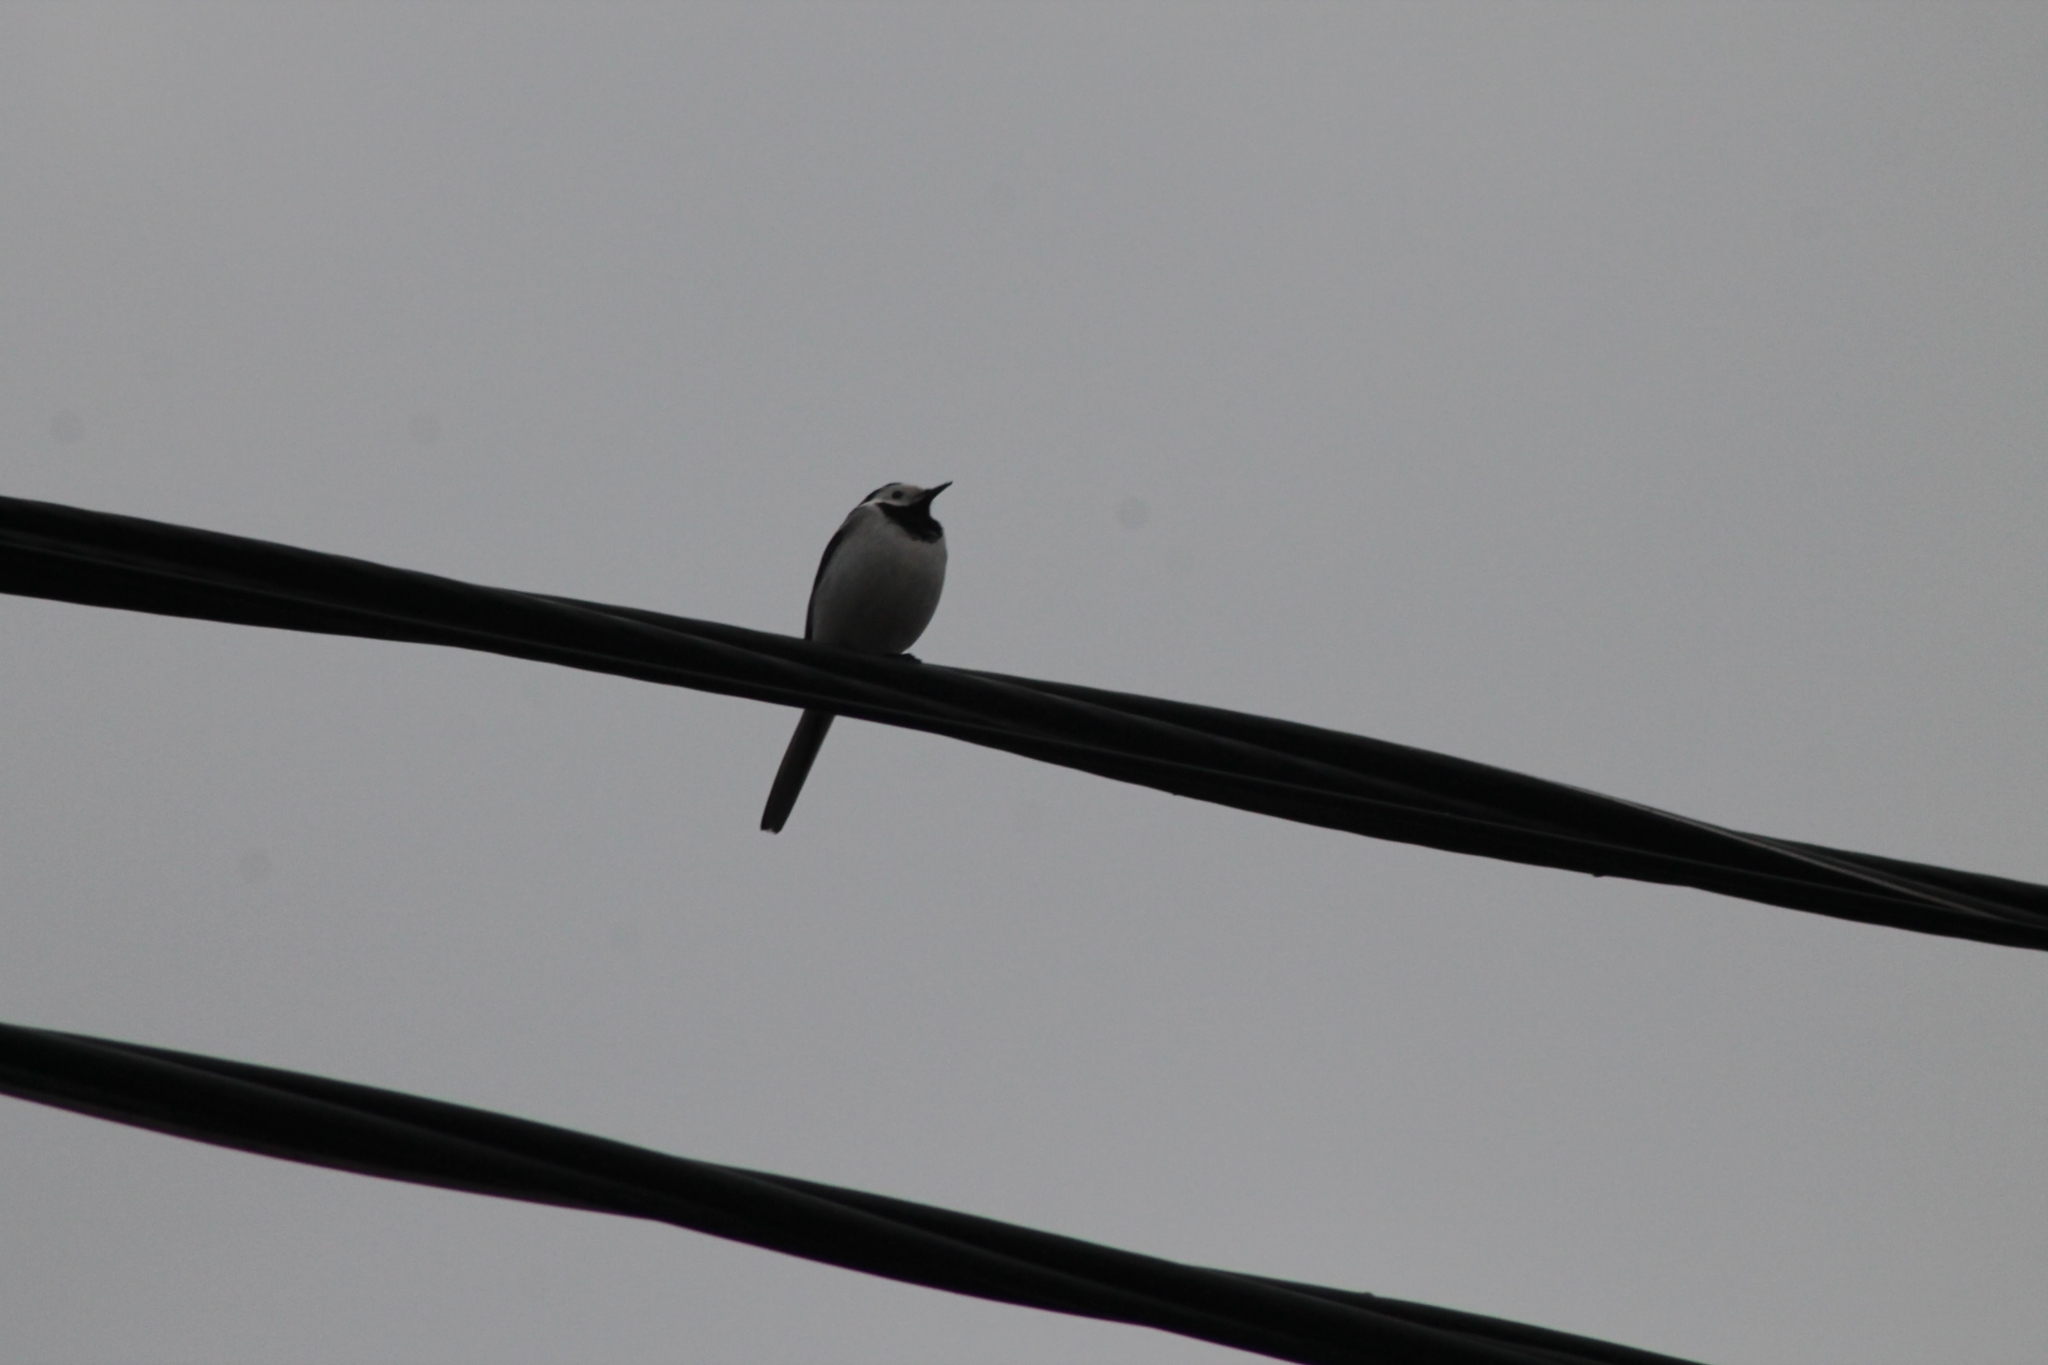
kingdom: Animalia
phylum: Chordata
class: Aves
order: Passeriformes
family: Motacillidae
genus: Motacilla
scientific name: Motacilla alba
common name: White wagtail
